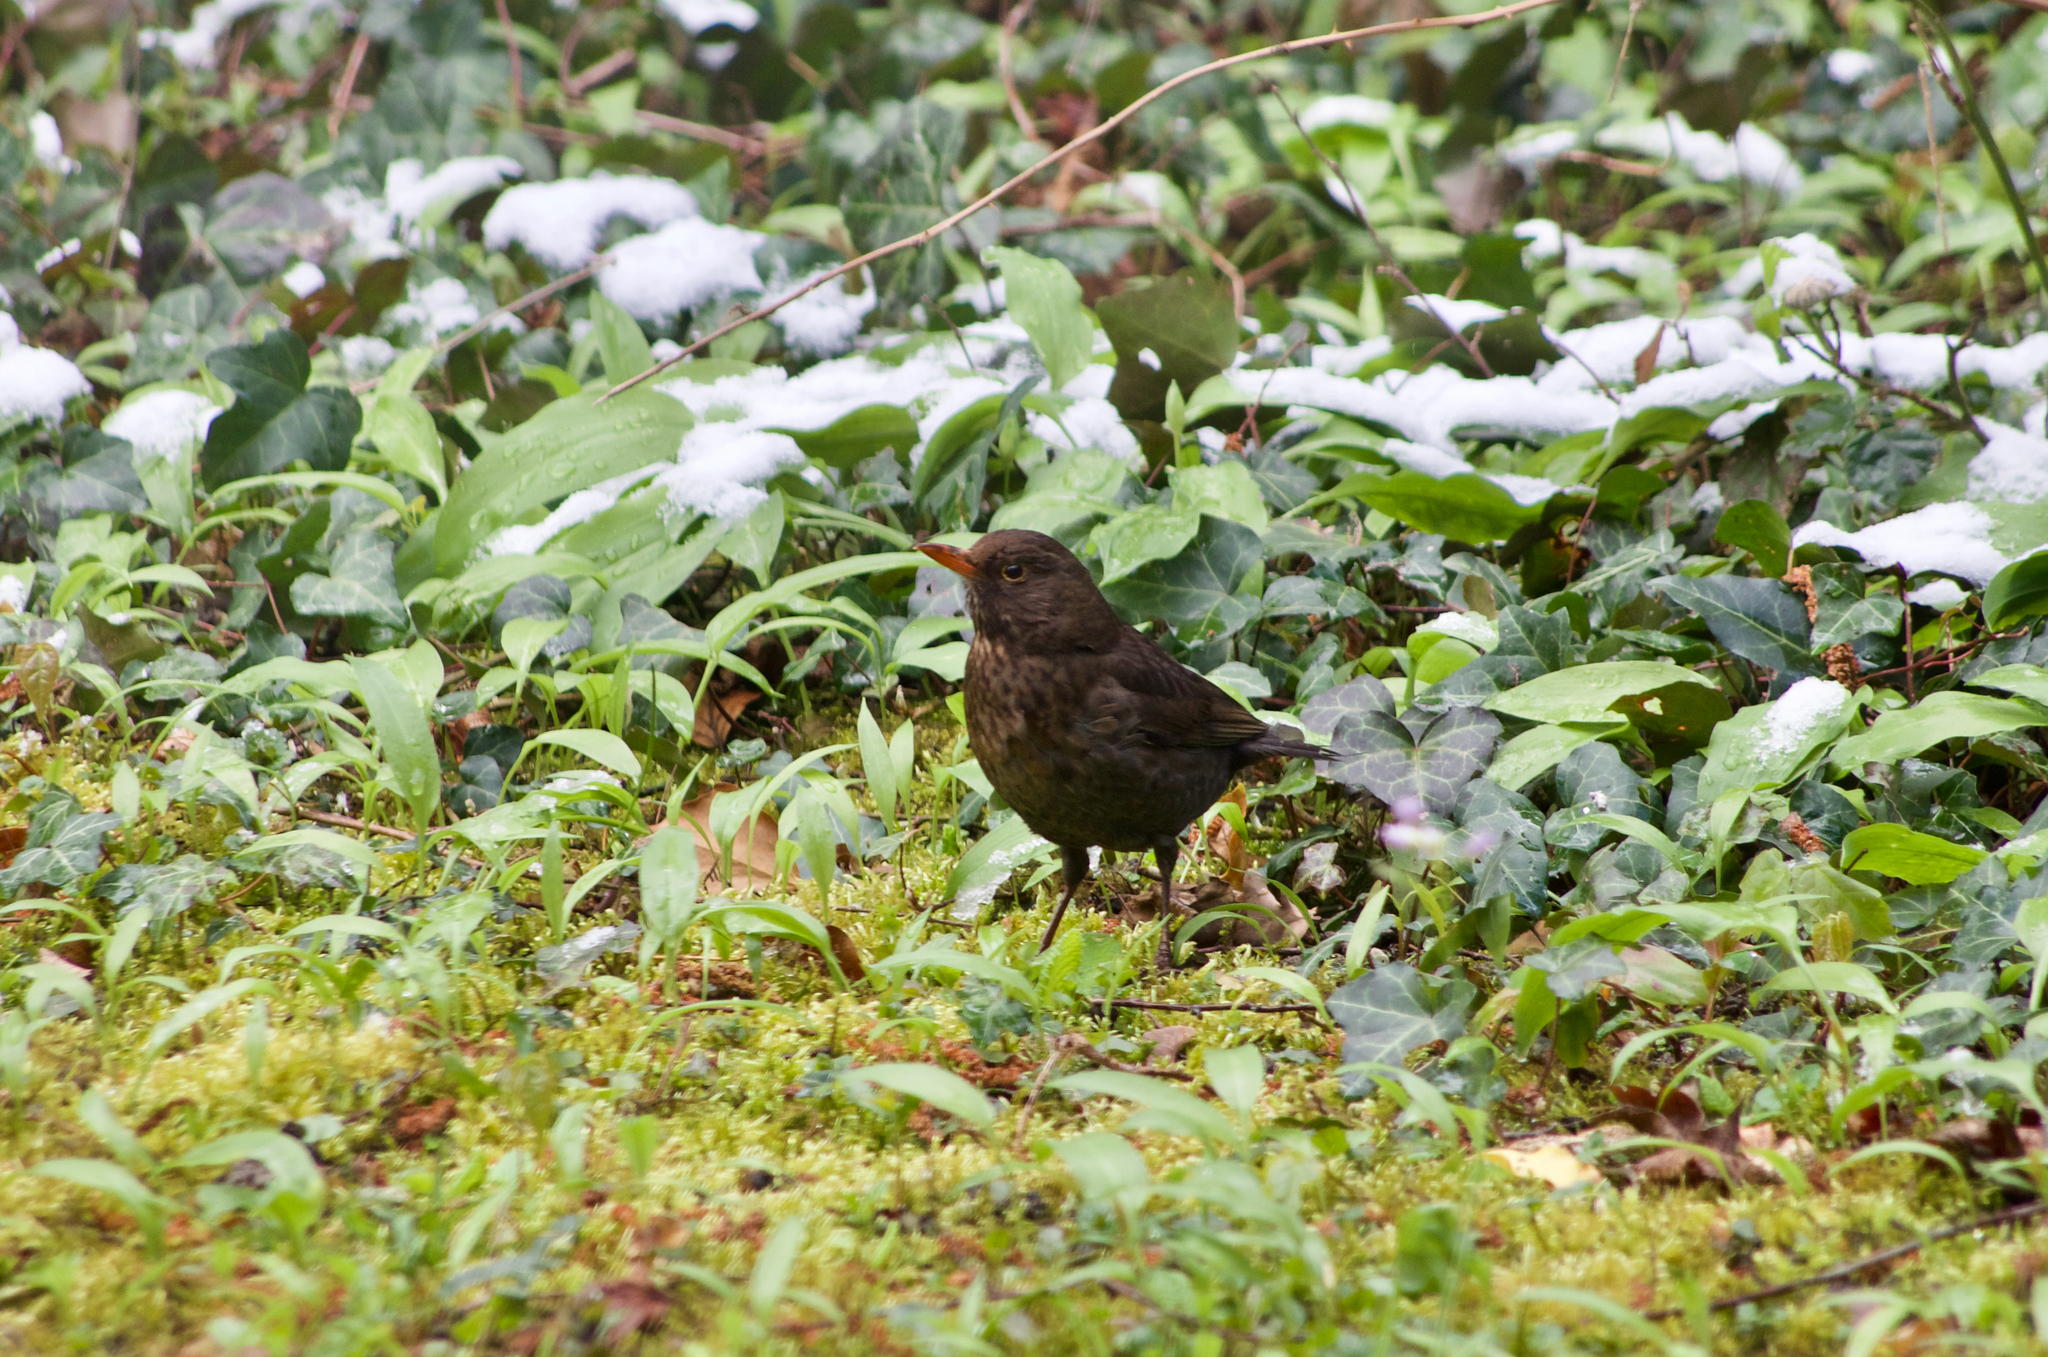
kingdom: Animalia
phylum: Chordata
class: Aves
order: Passeriformes
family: Turdidae
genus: Turdus
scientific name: Turdus merula
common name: Common blackbird
